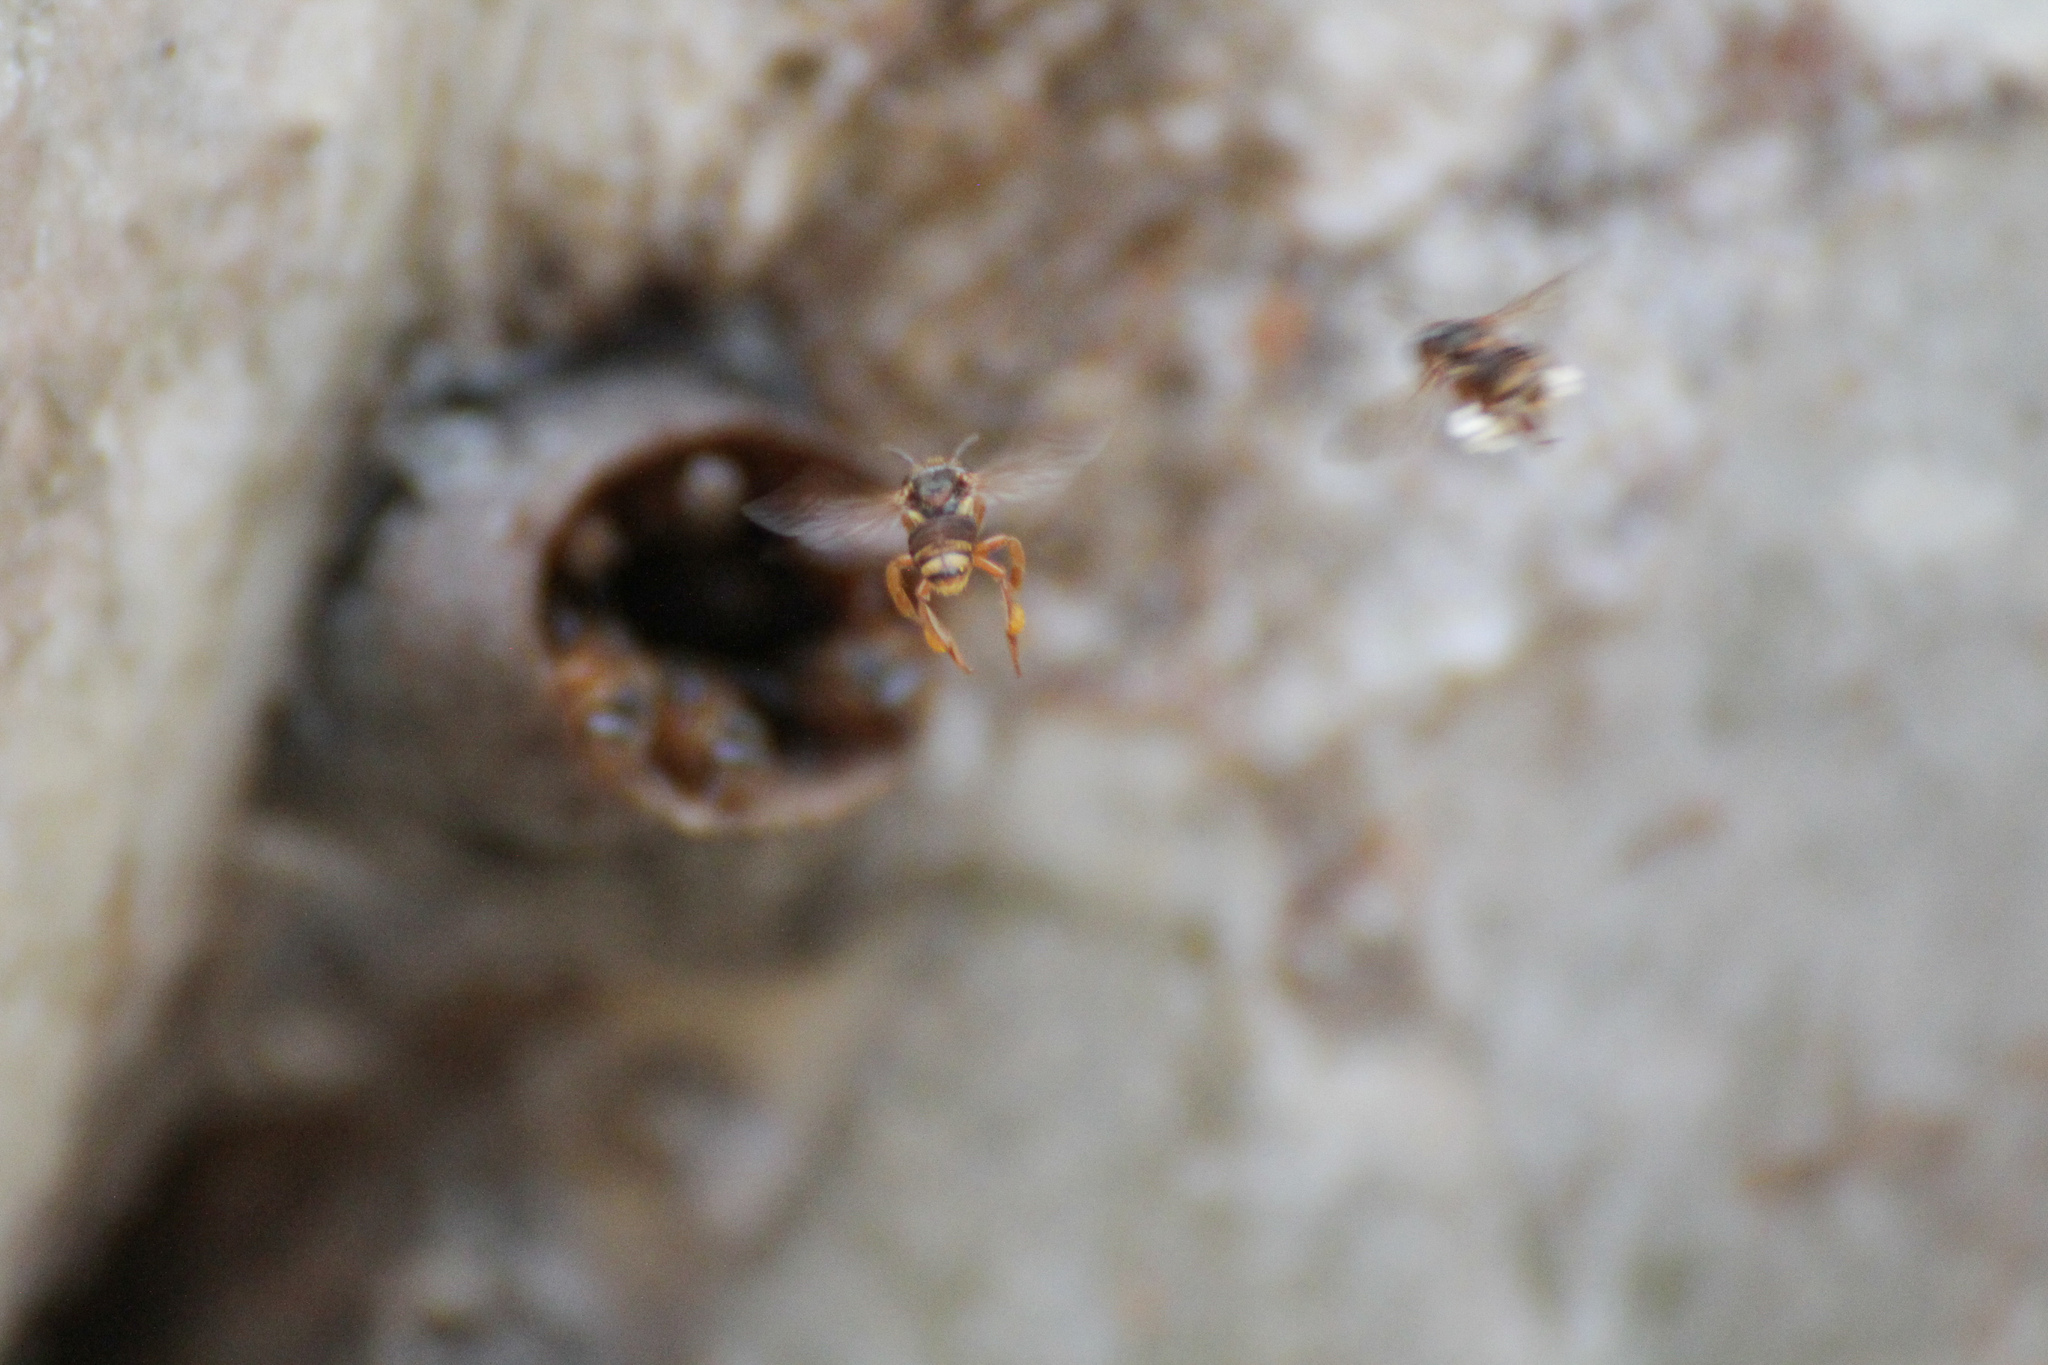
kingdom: Animalia
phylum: Arthropoda
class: Insecta
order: Hymenoptera
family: Apidae
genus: Scaptotrigona
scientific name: Scaptotrigona pectoralis
